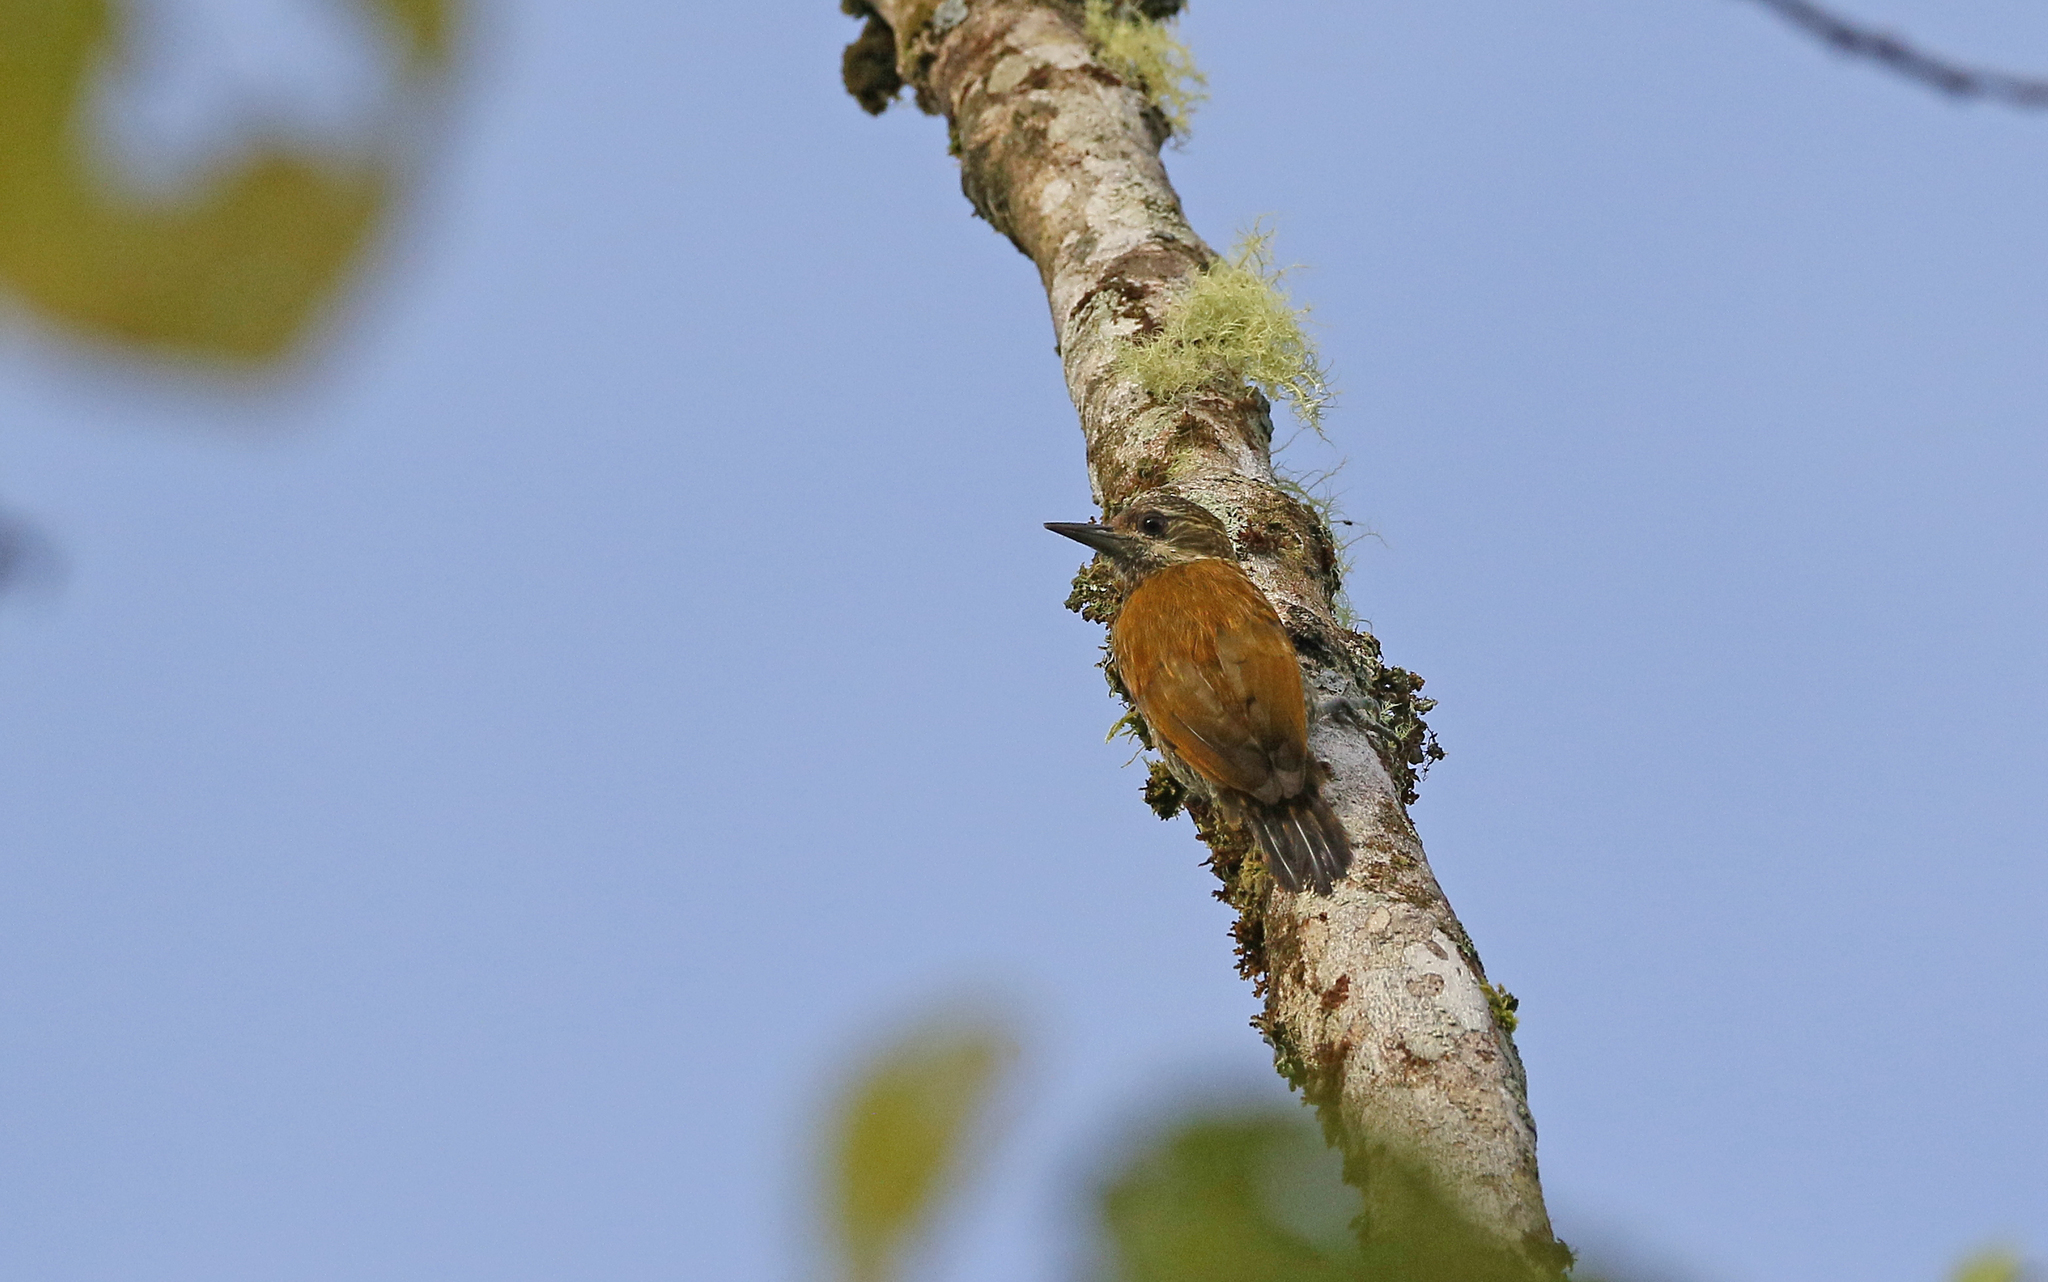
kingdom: Animalia
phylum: Chordata
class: Aves
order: Piciformes
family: Picidae
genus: Veniliornis
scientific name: Veniliornis passerinus
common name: Little woodpecker
